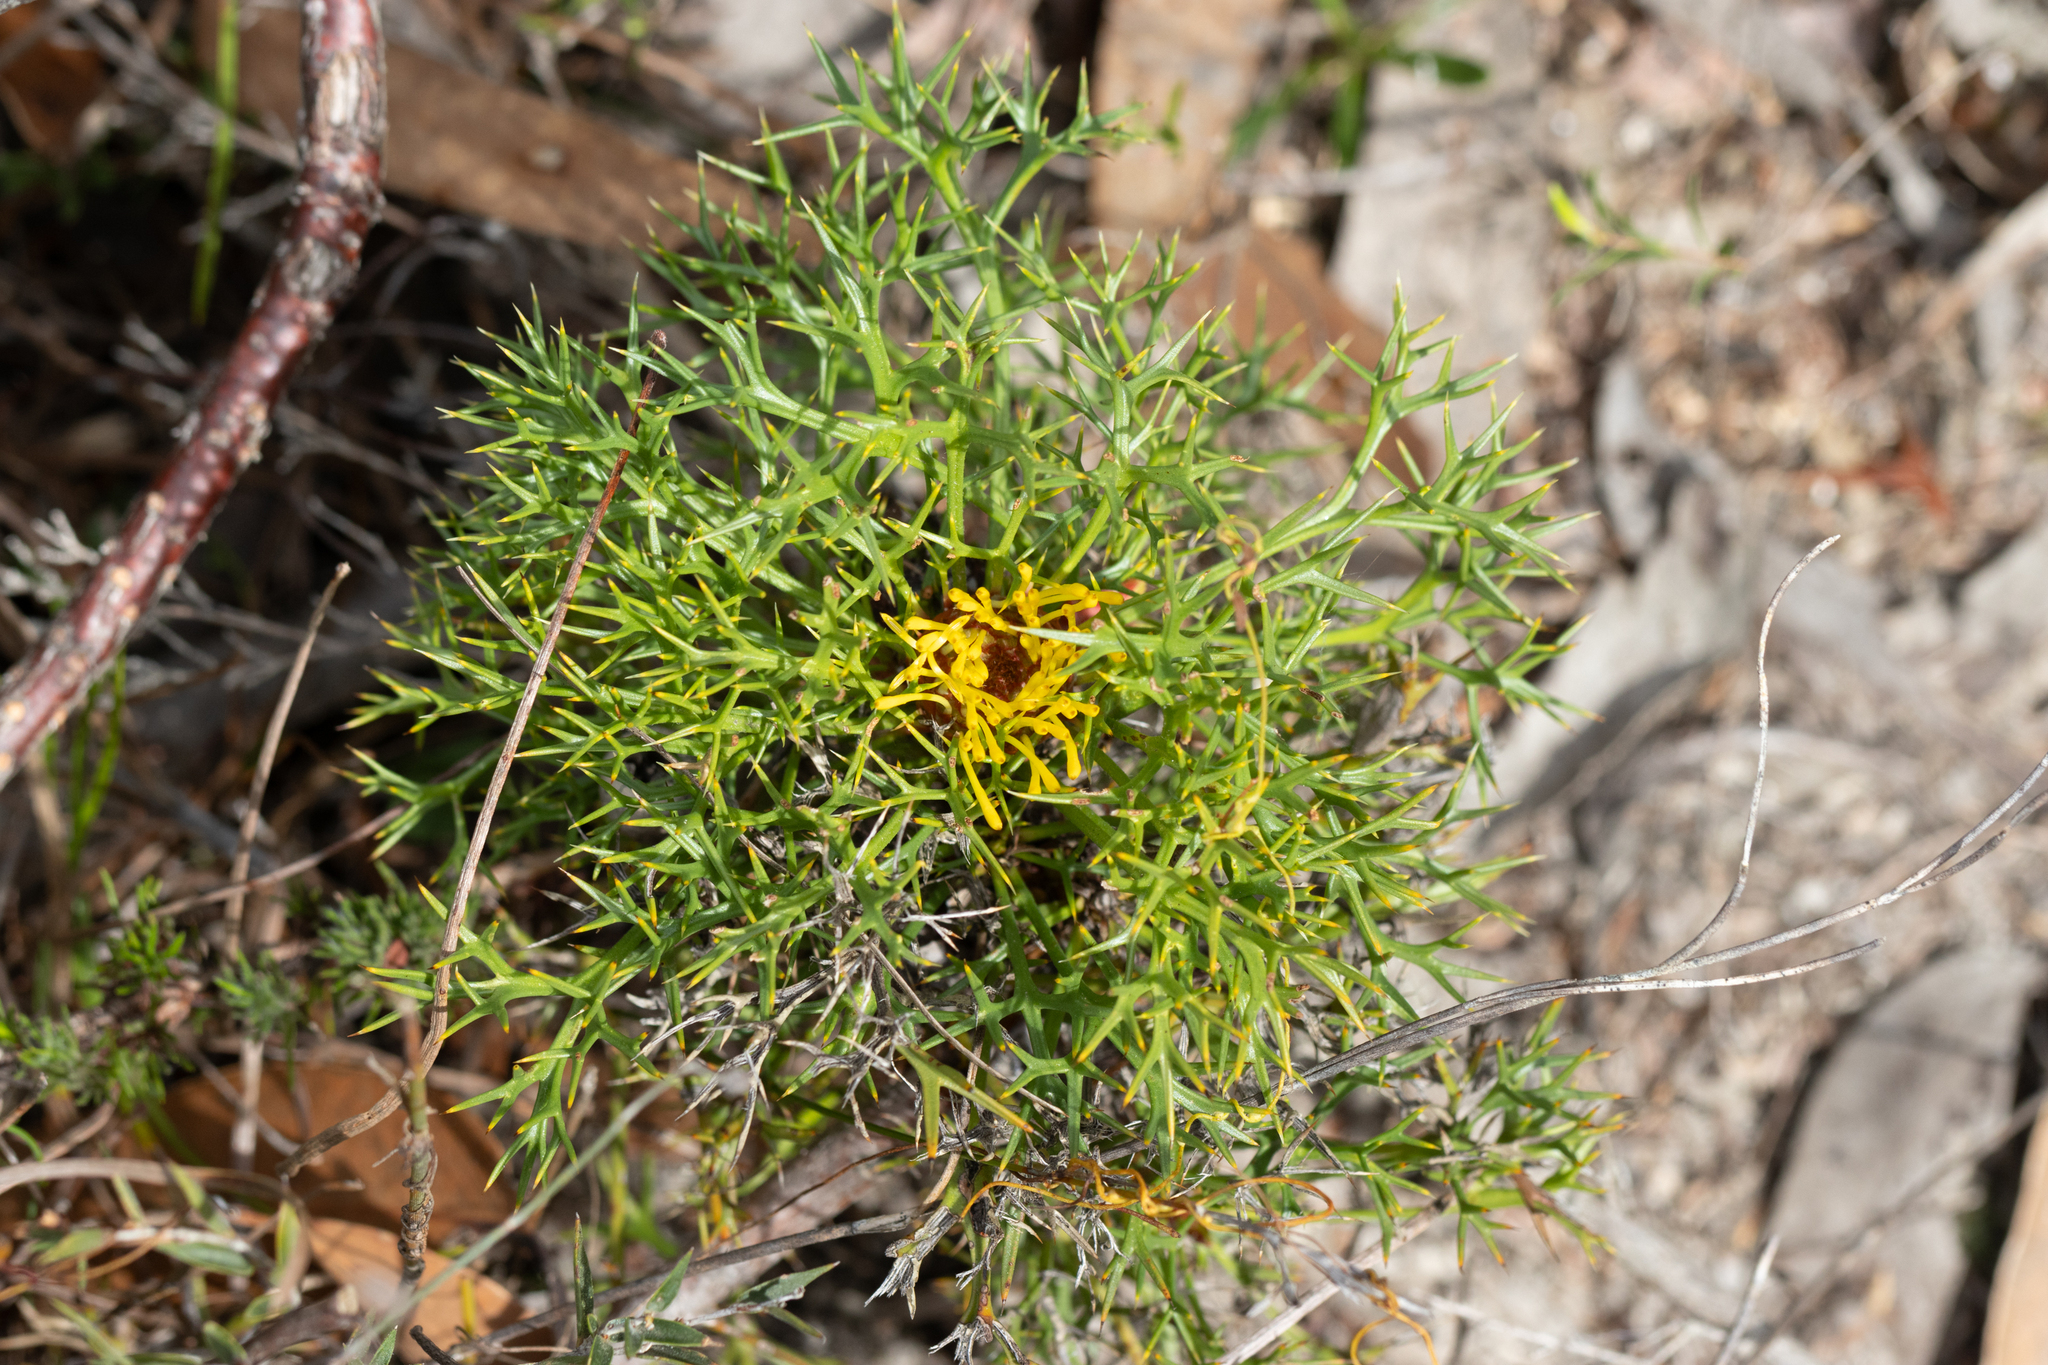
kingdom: Plantae
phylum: Tracheophyta
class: Magnoliopsida
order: Proteales
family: Proteaceae
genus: Isopogon
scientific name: Isopogon ceratophyllus
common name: Horny cone-bush
